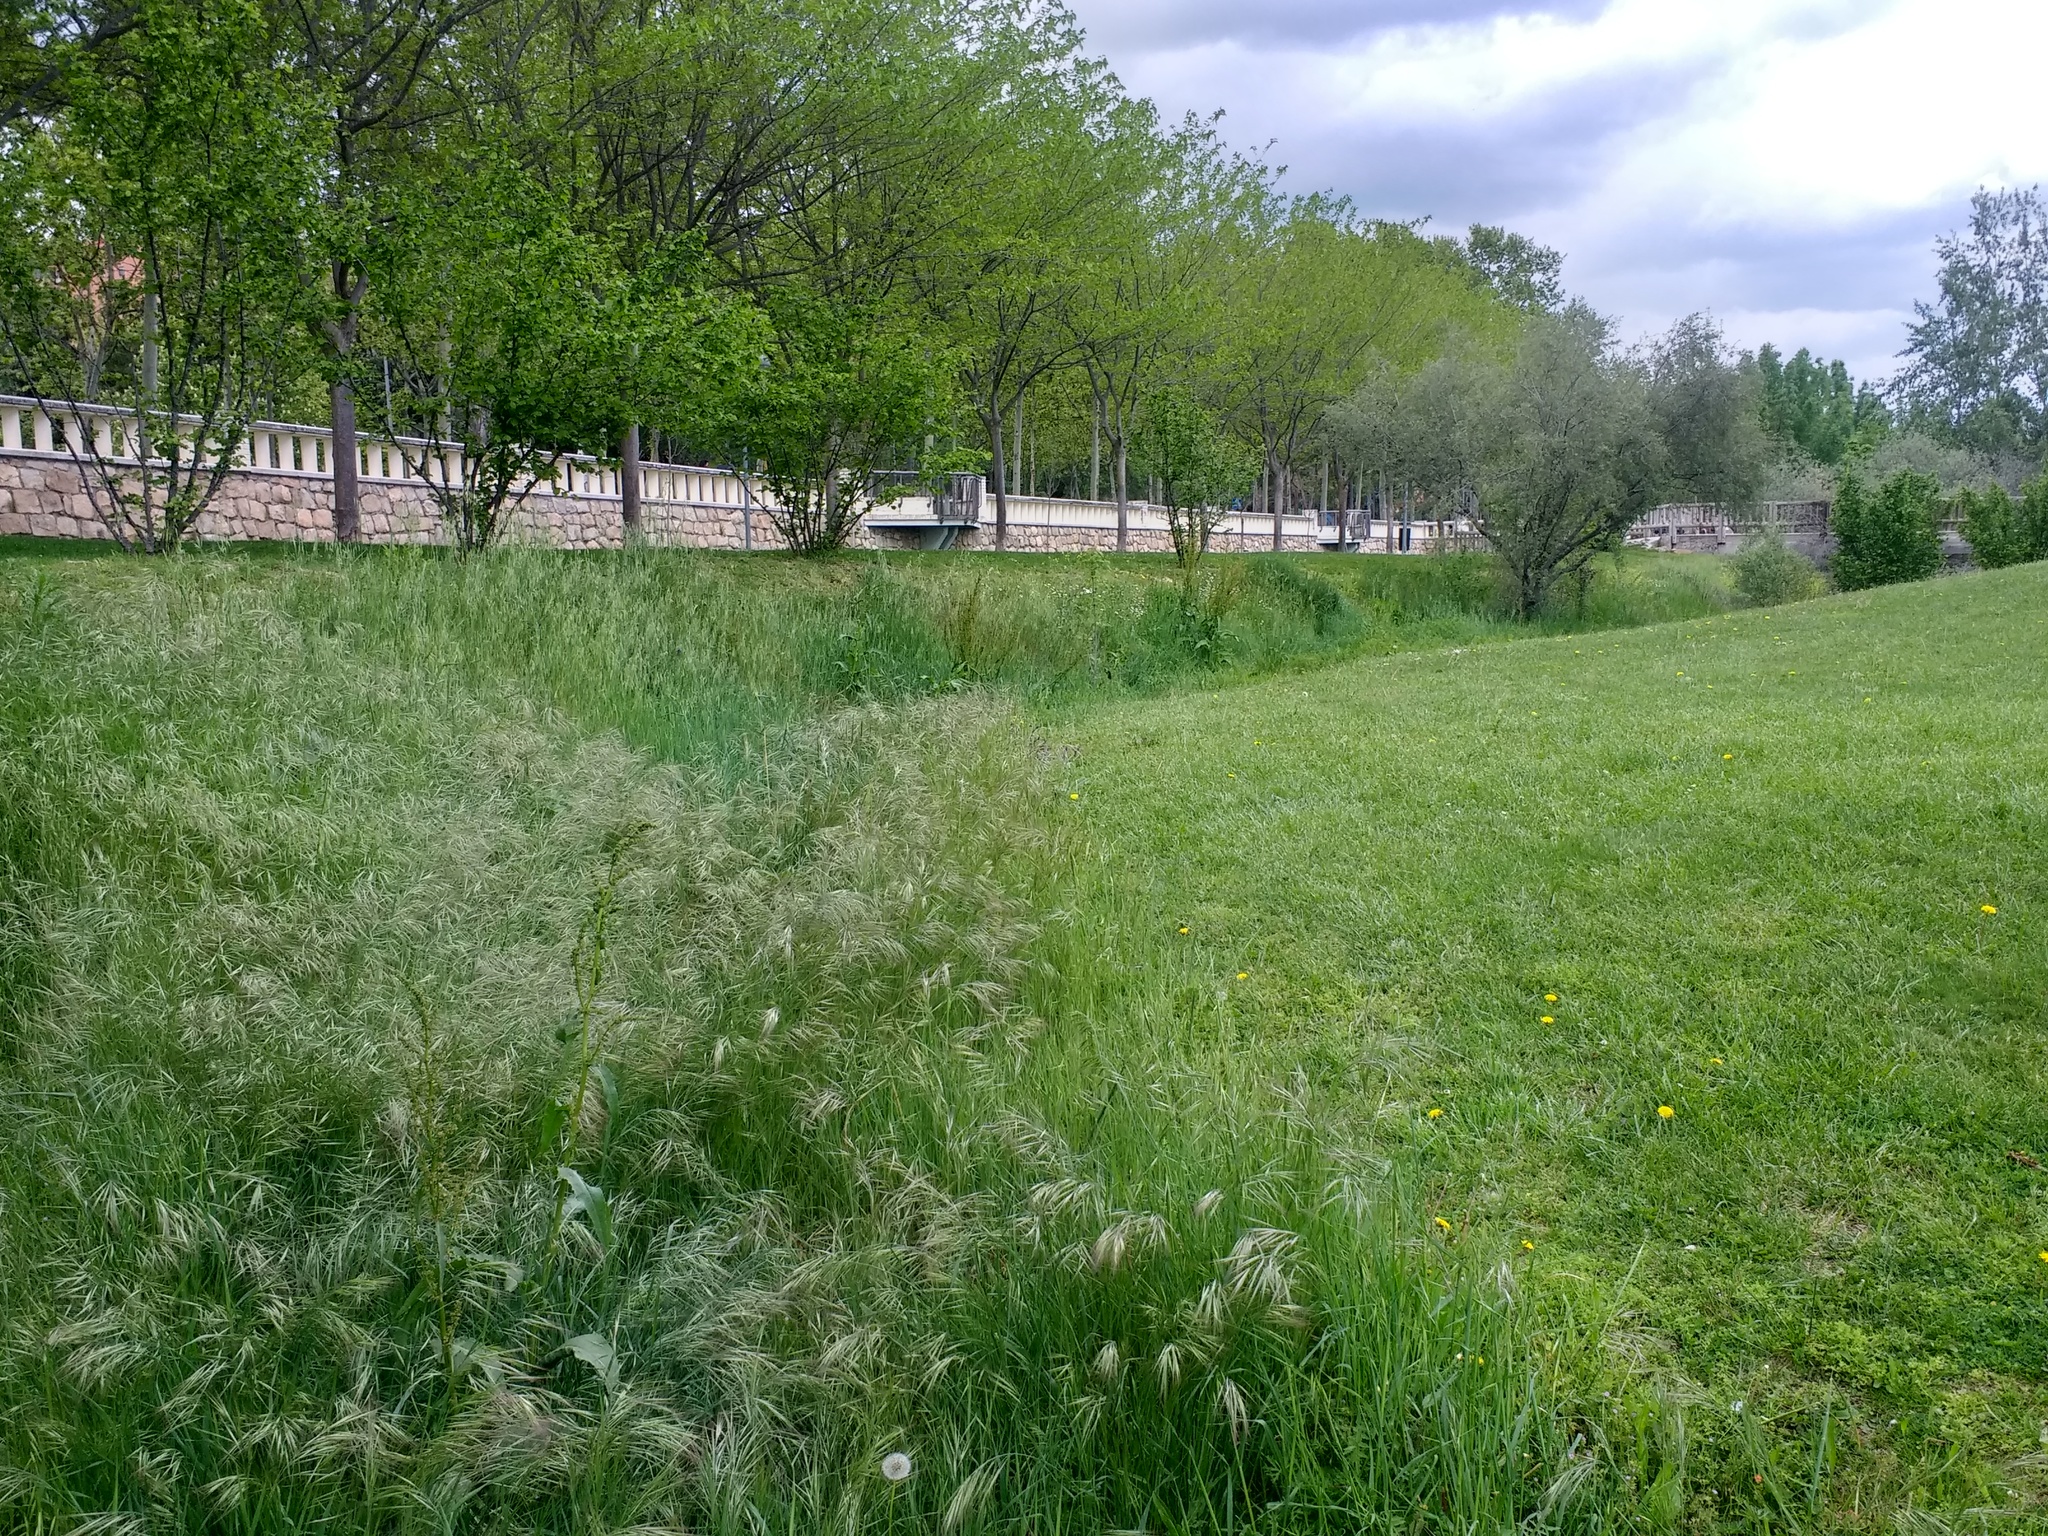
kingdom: Plantae
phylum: Tracheophyta
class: Liliopsida
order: Poales
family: Poaceae
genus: Bromus
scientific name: Bromus diandrus
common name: Ripgut brome
